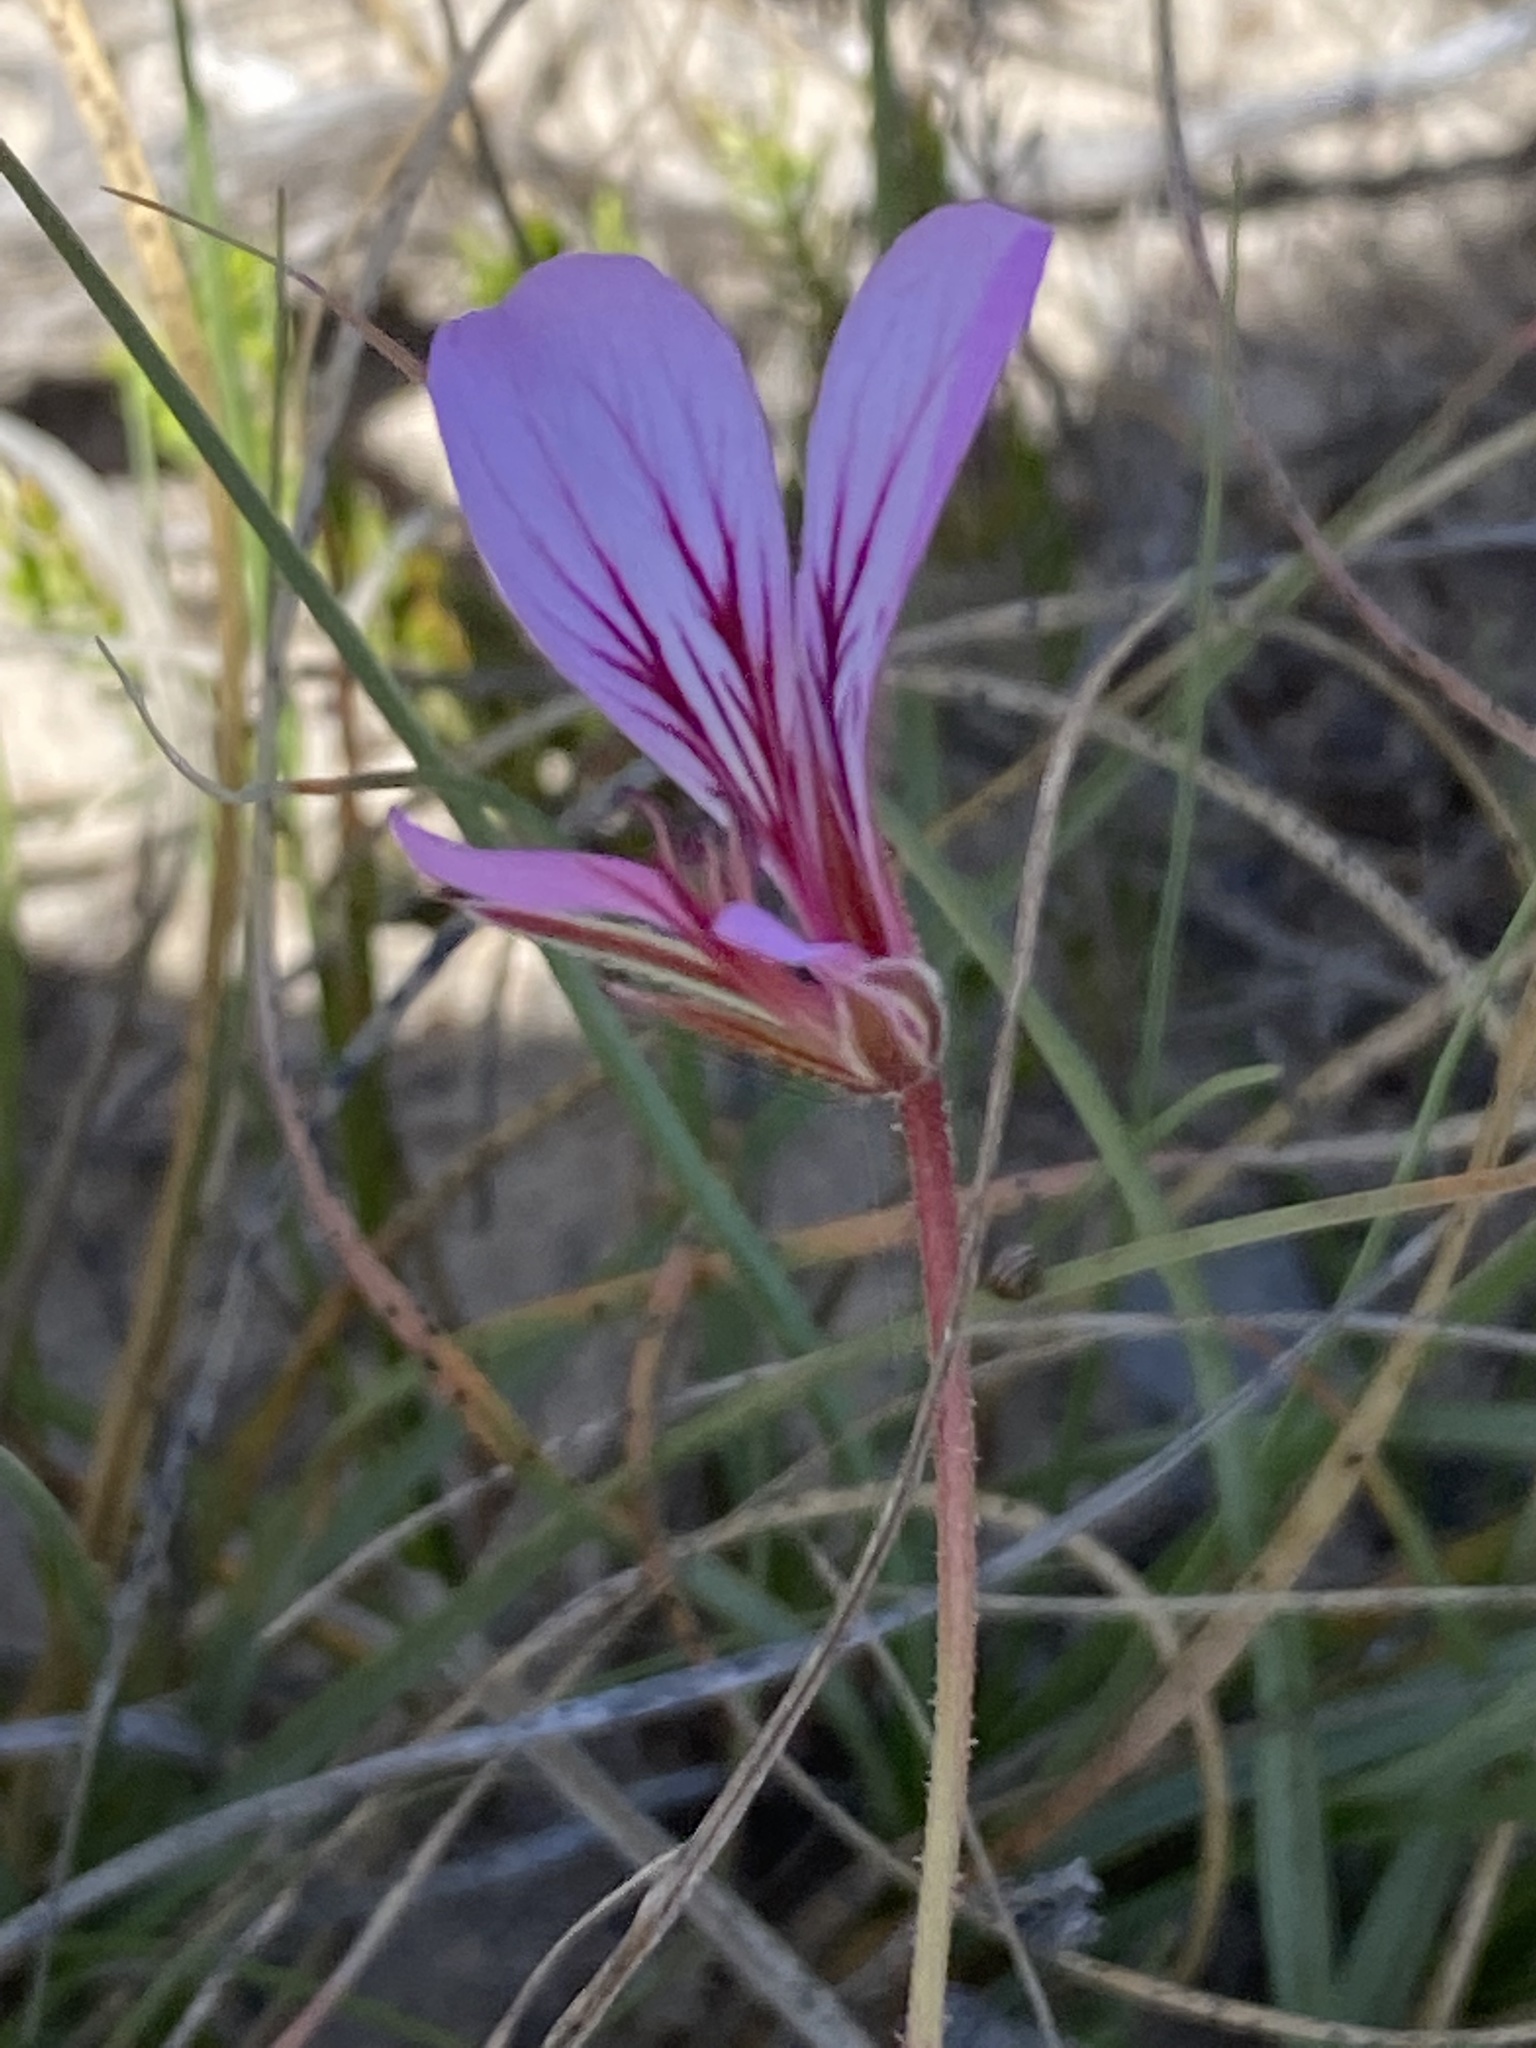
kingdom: Plantae
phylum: Tracheophyta
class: Magnoliopsida
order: Geraniales
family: Geraniaceae
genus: Pelargonium
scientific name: Pelargonium caucalifolium
